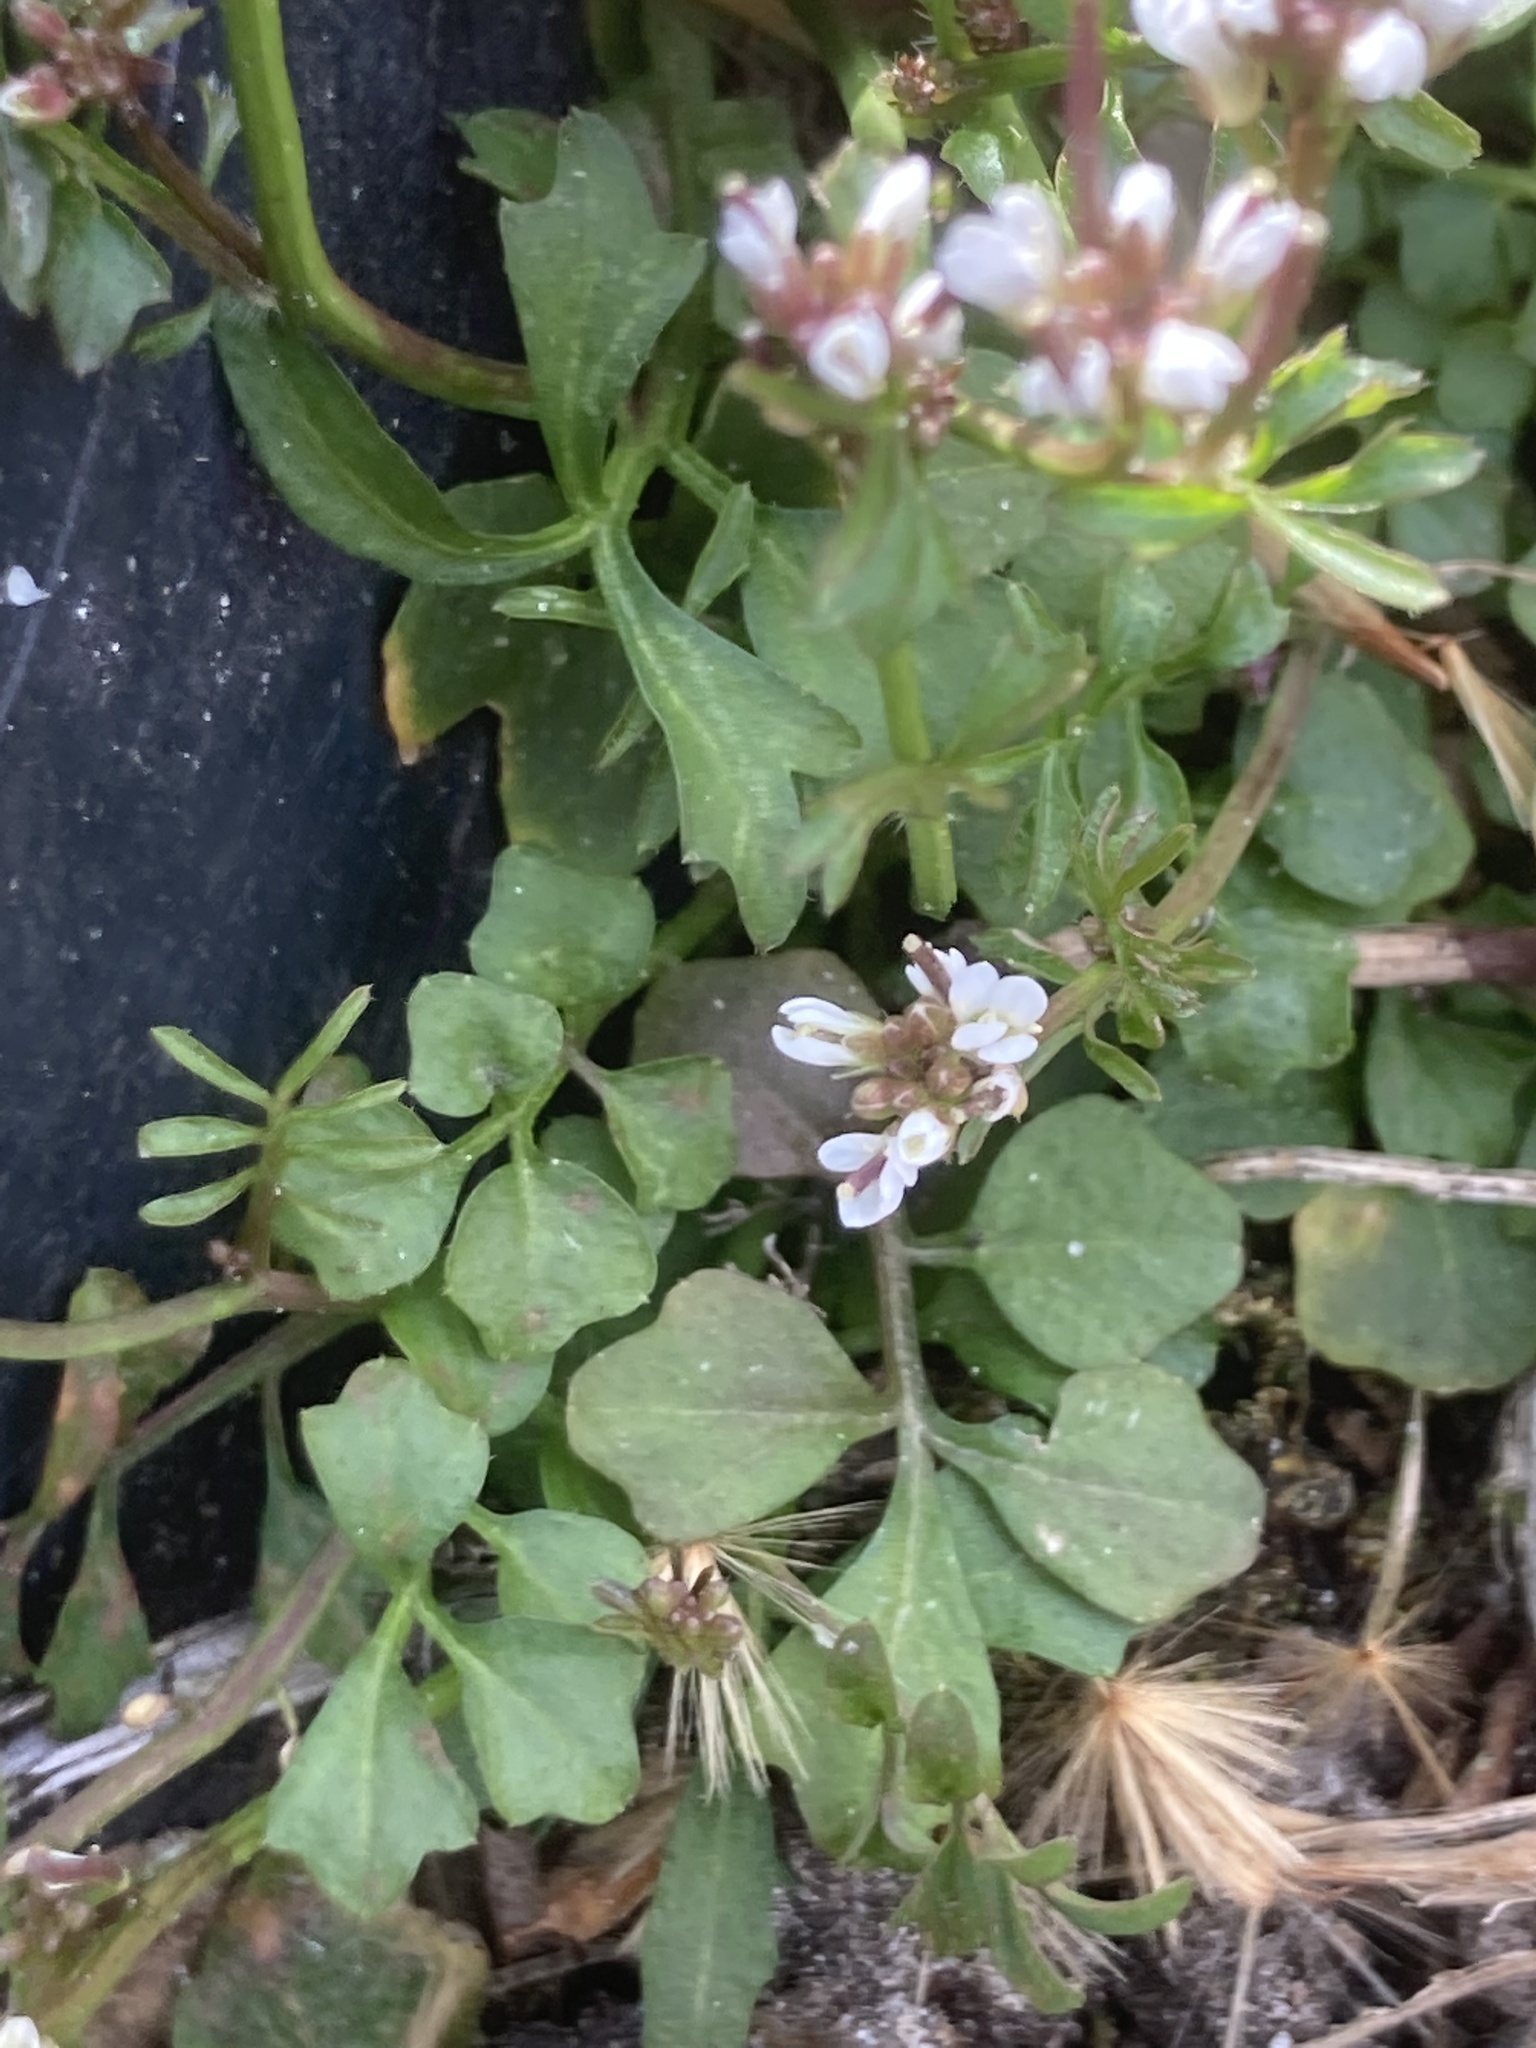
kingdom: Plantae
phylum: Tracheophyta
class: Magnoliopsida
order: Brassicales
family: Brassicaceae
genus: Cardamine
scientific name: Cardamine hirsuta
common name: Hairy bittercress
